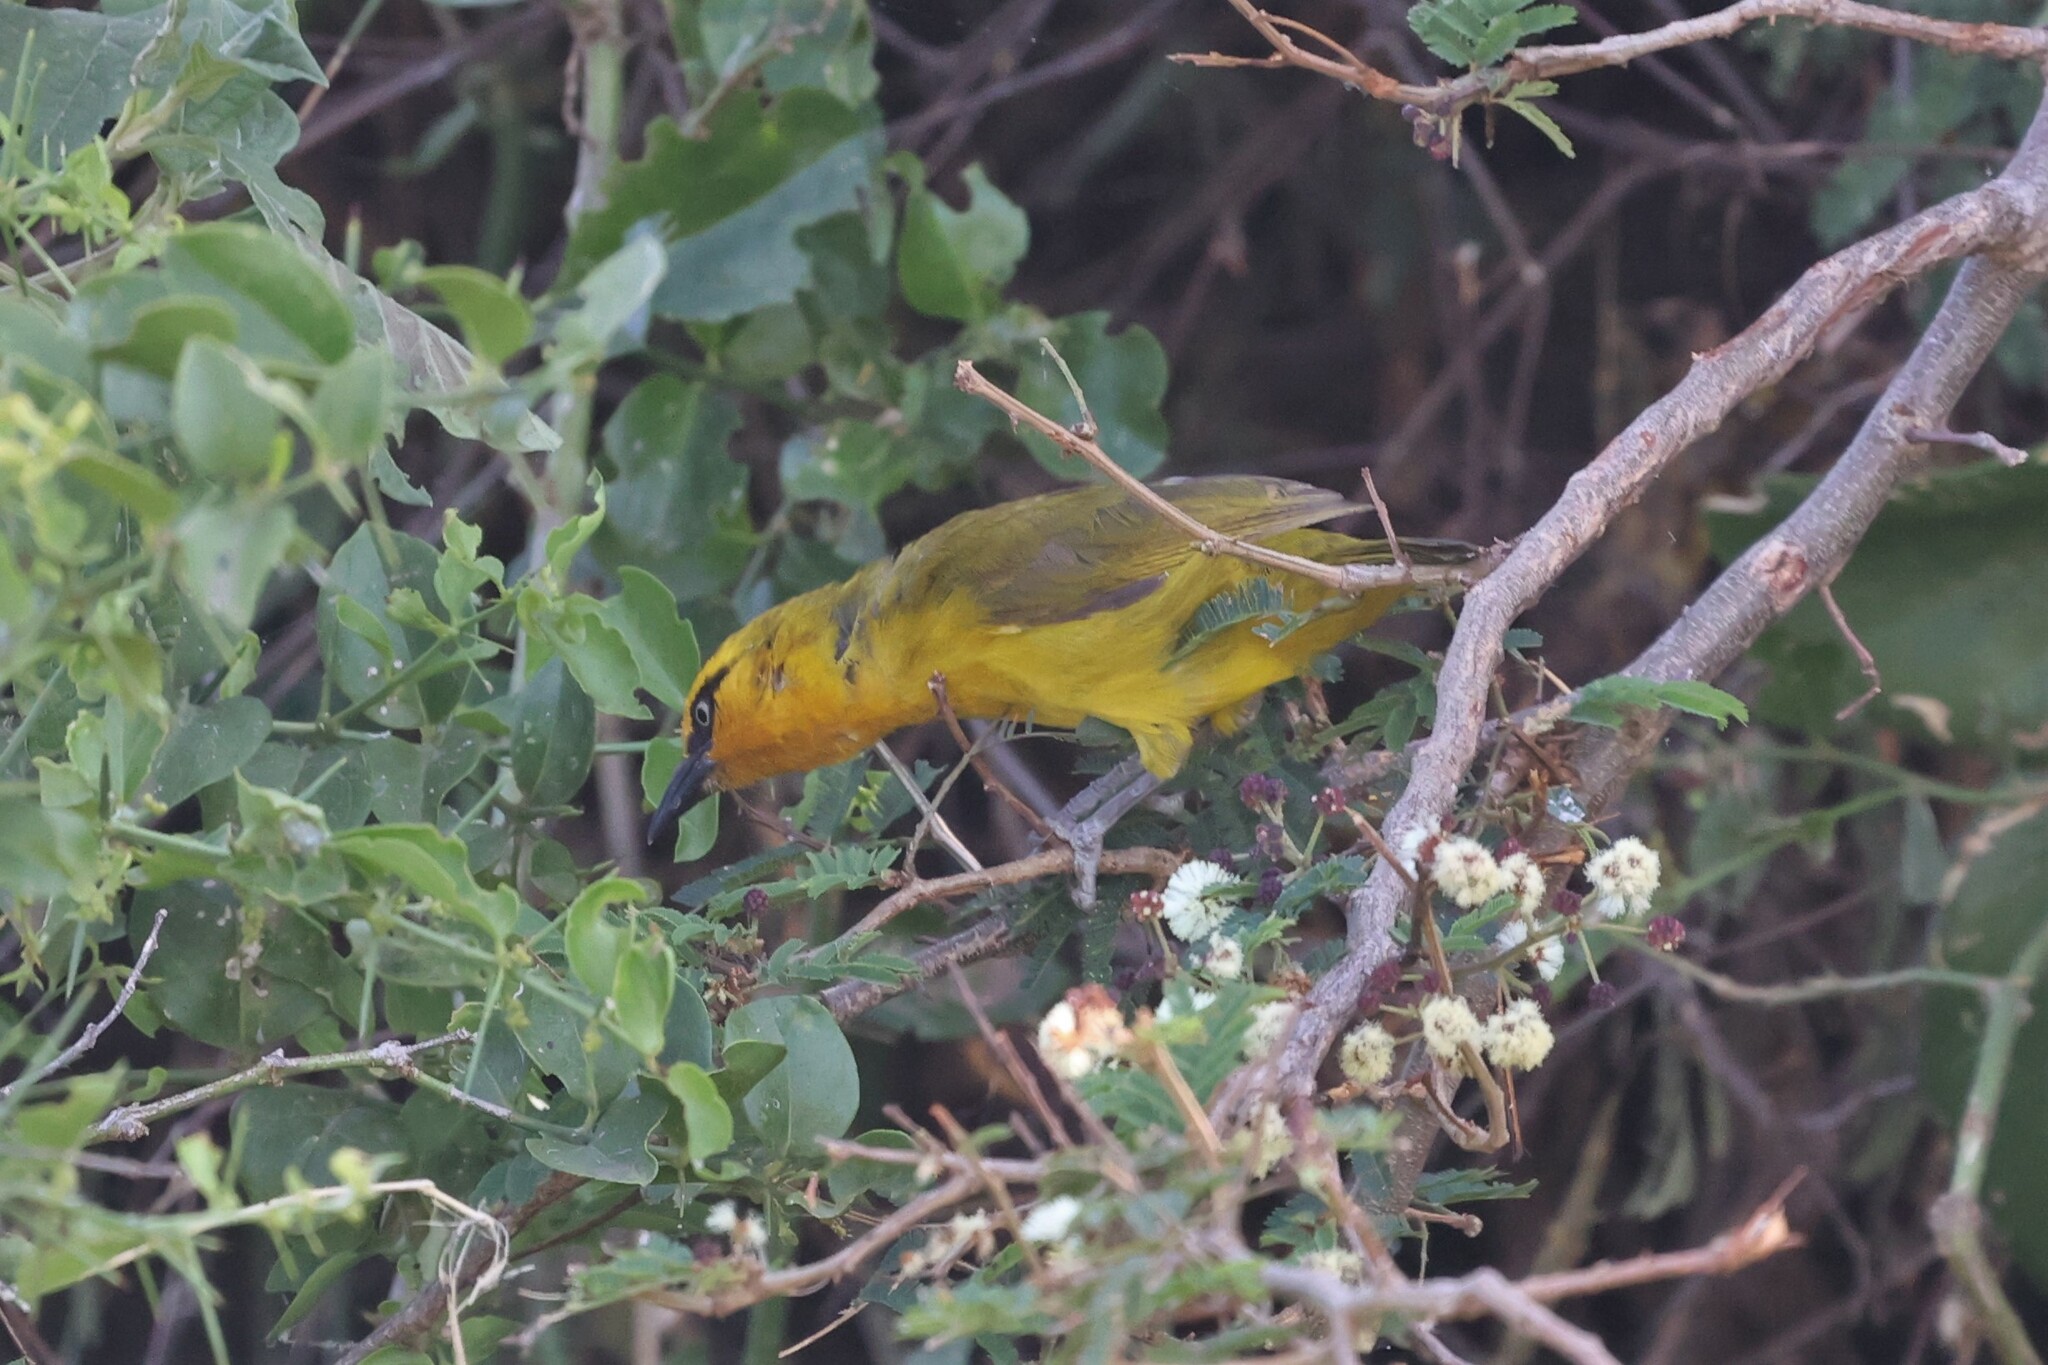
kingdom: Animalia
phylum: Chordata
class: Aves
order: Passeriformes
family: Ploceidae
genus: Ploceus
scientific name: Ploceus ocularis
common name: Spectacled weaver
